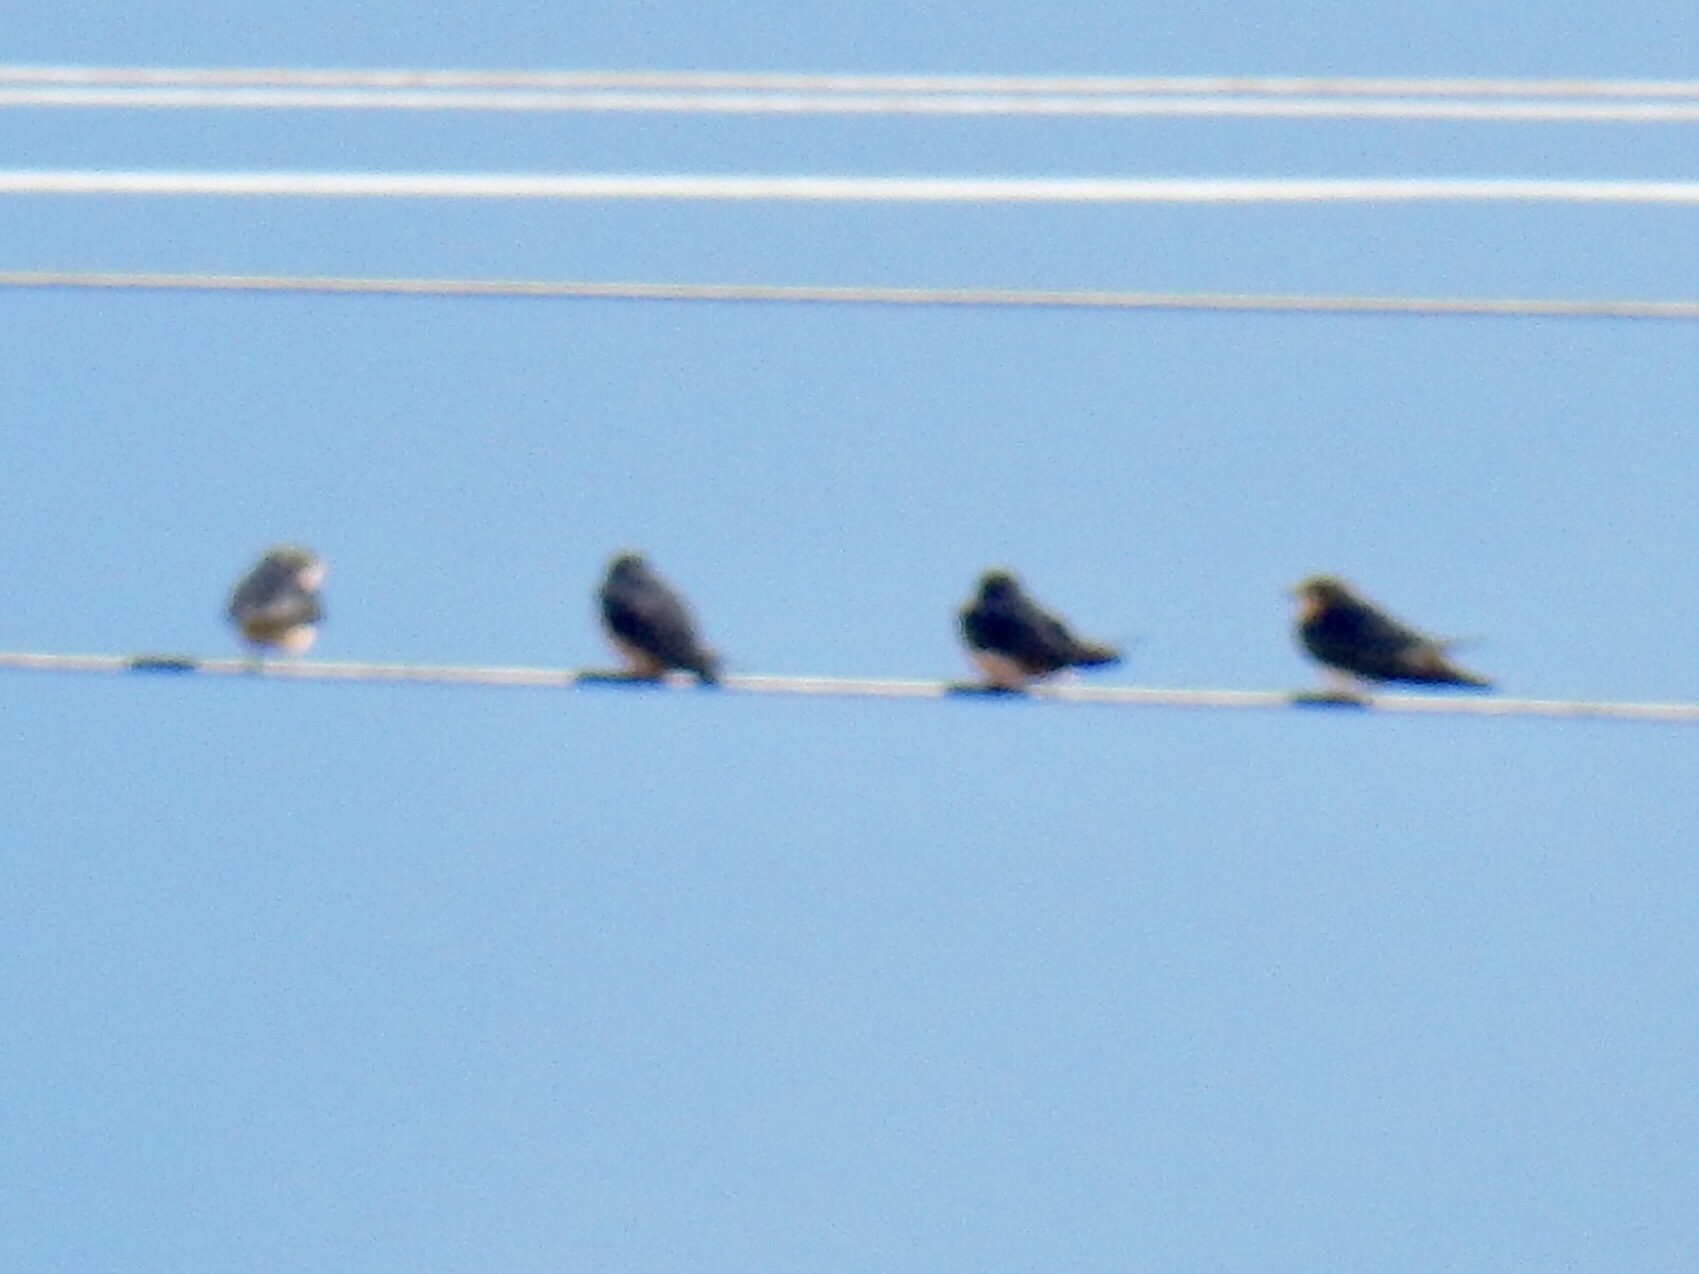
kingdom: Animalia
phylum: Chordata
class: Aves
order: Passeriformes
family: Hirundinidae
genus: Hirundo
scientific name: Hirundo rustica
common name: Barn swallow
